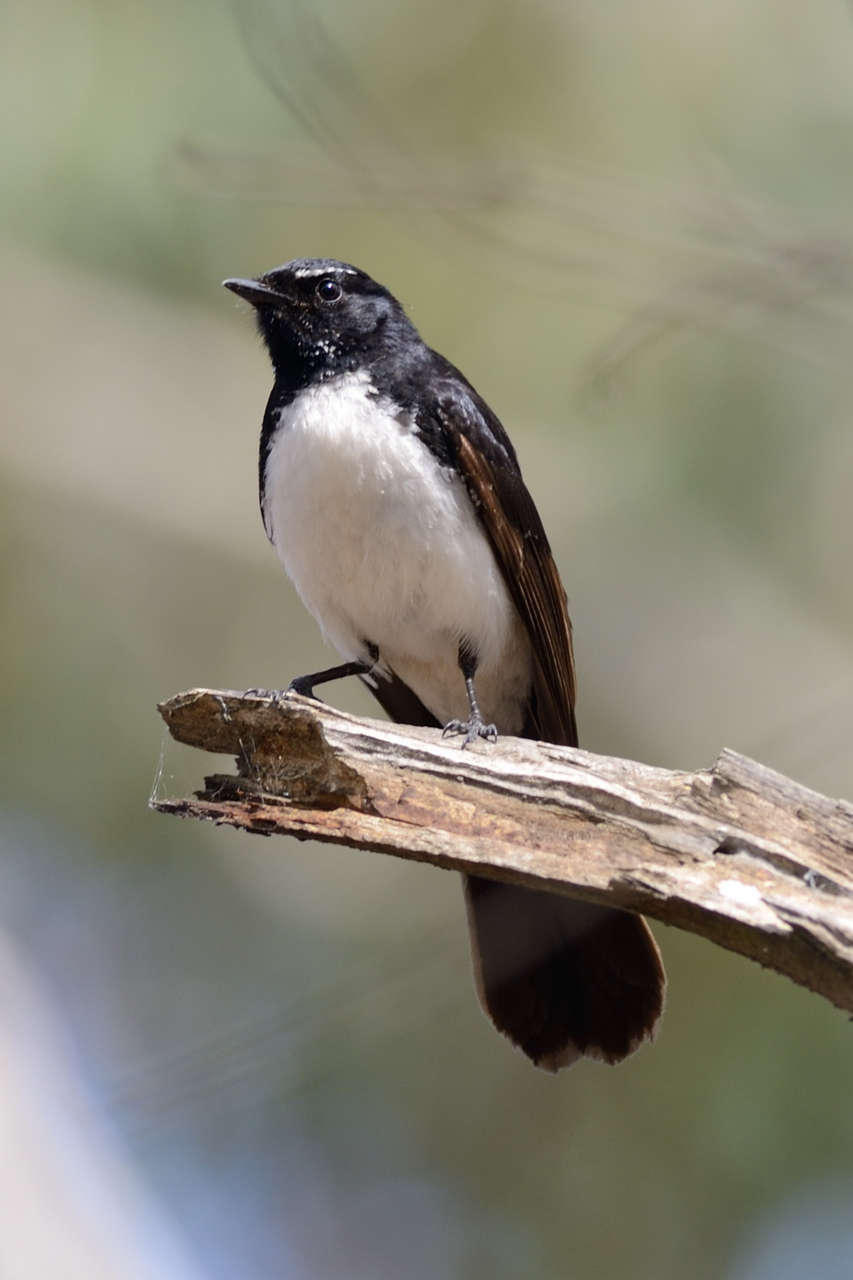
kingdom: Animalia
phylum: Chordata
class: Aves
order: Passeriformes
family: Rhipiduridae
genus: Rhipidura
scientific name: Rhipidura leucophrys
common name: Willie wagtail
